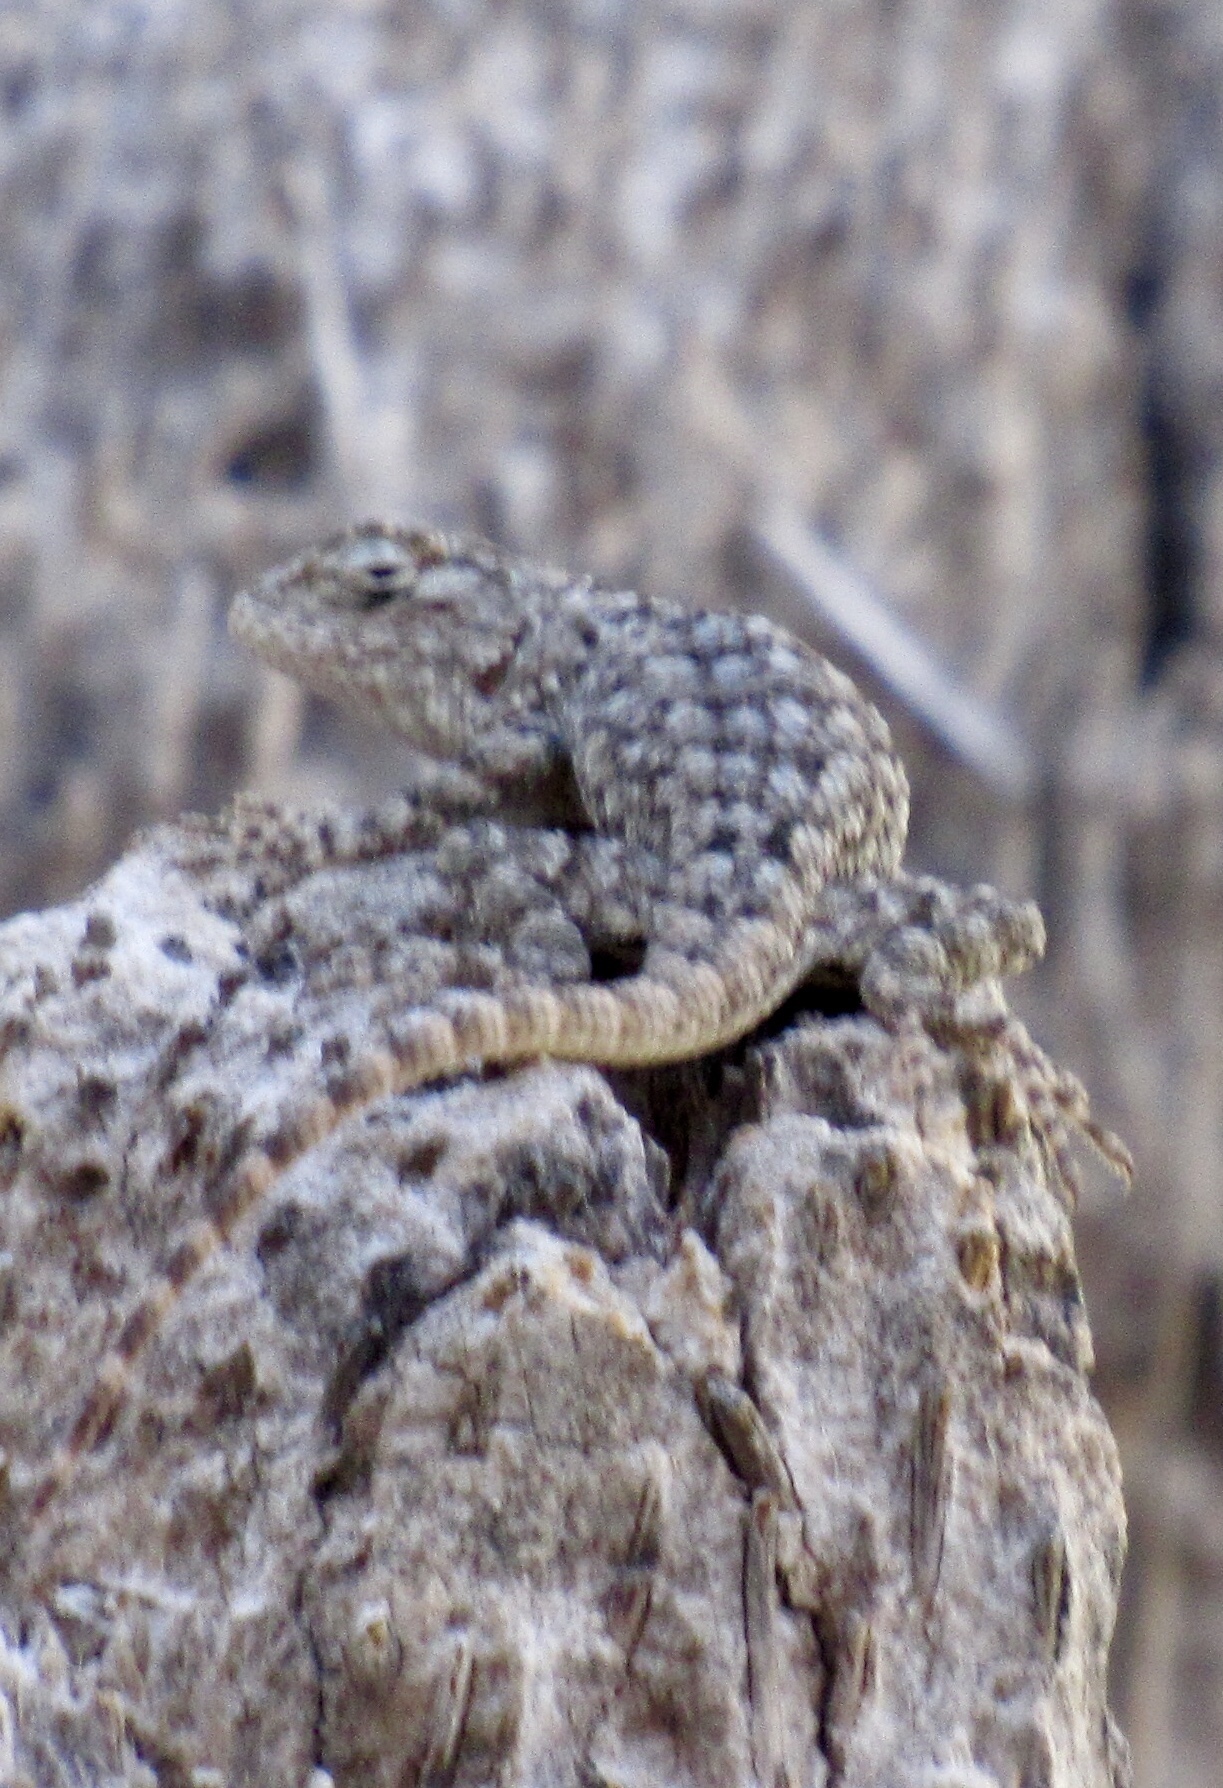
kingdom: Animalia
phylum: Chordata
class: Squamata
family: Phrynosomatidae
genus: Sceloporus
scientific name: Sceloporus clarkii
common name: Clark's spiny lizard
